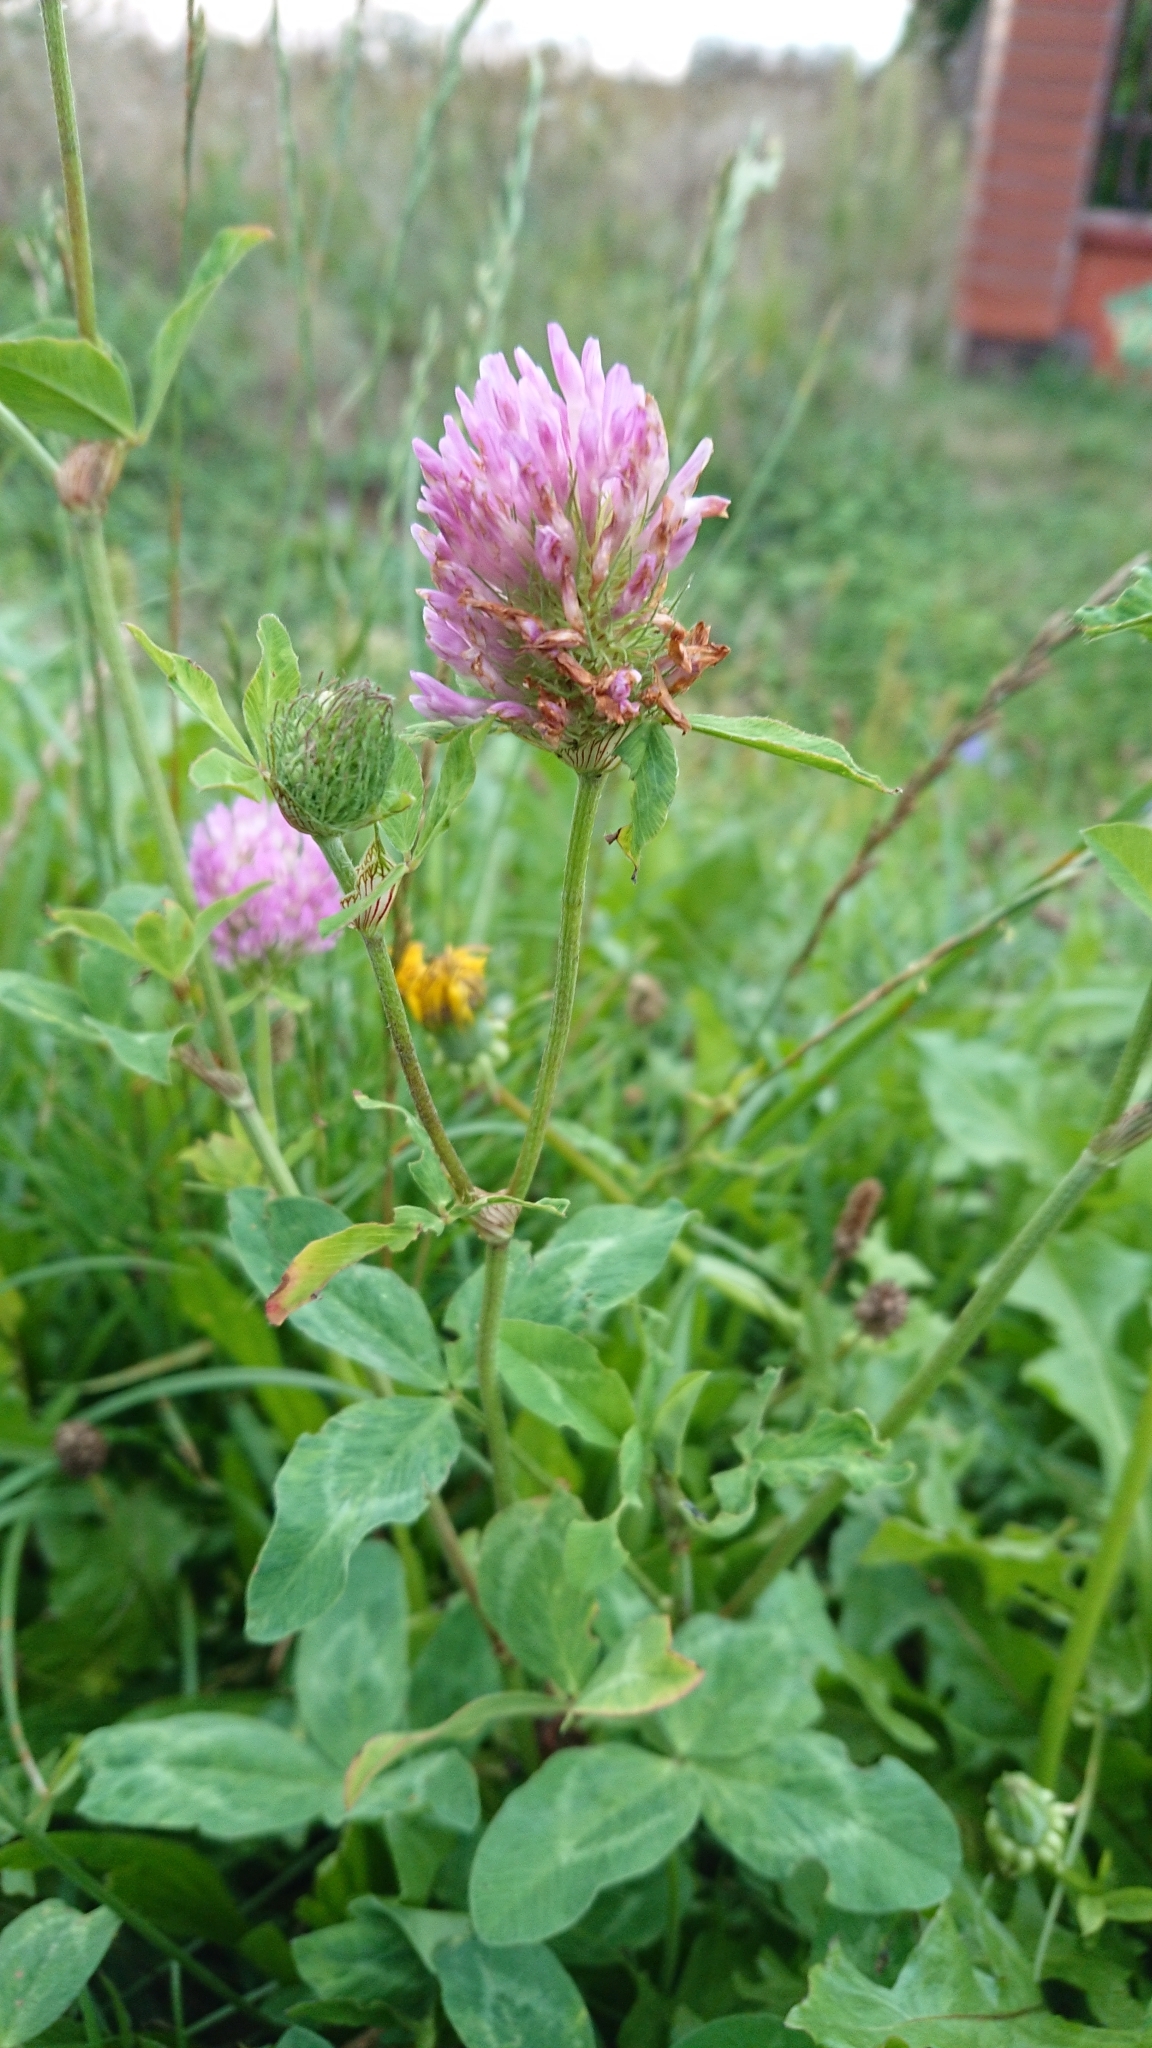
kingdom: Plantae
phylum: Tracheophyta
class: Magnoliopsida
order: Fabales
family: Fabaceae
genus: Trifolium
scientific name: Trifolium pratense
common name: Red clover
